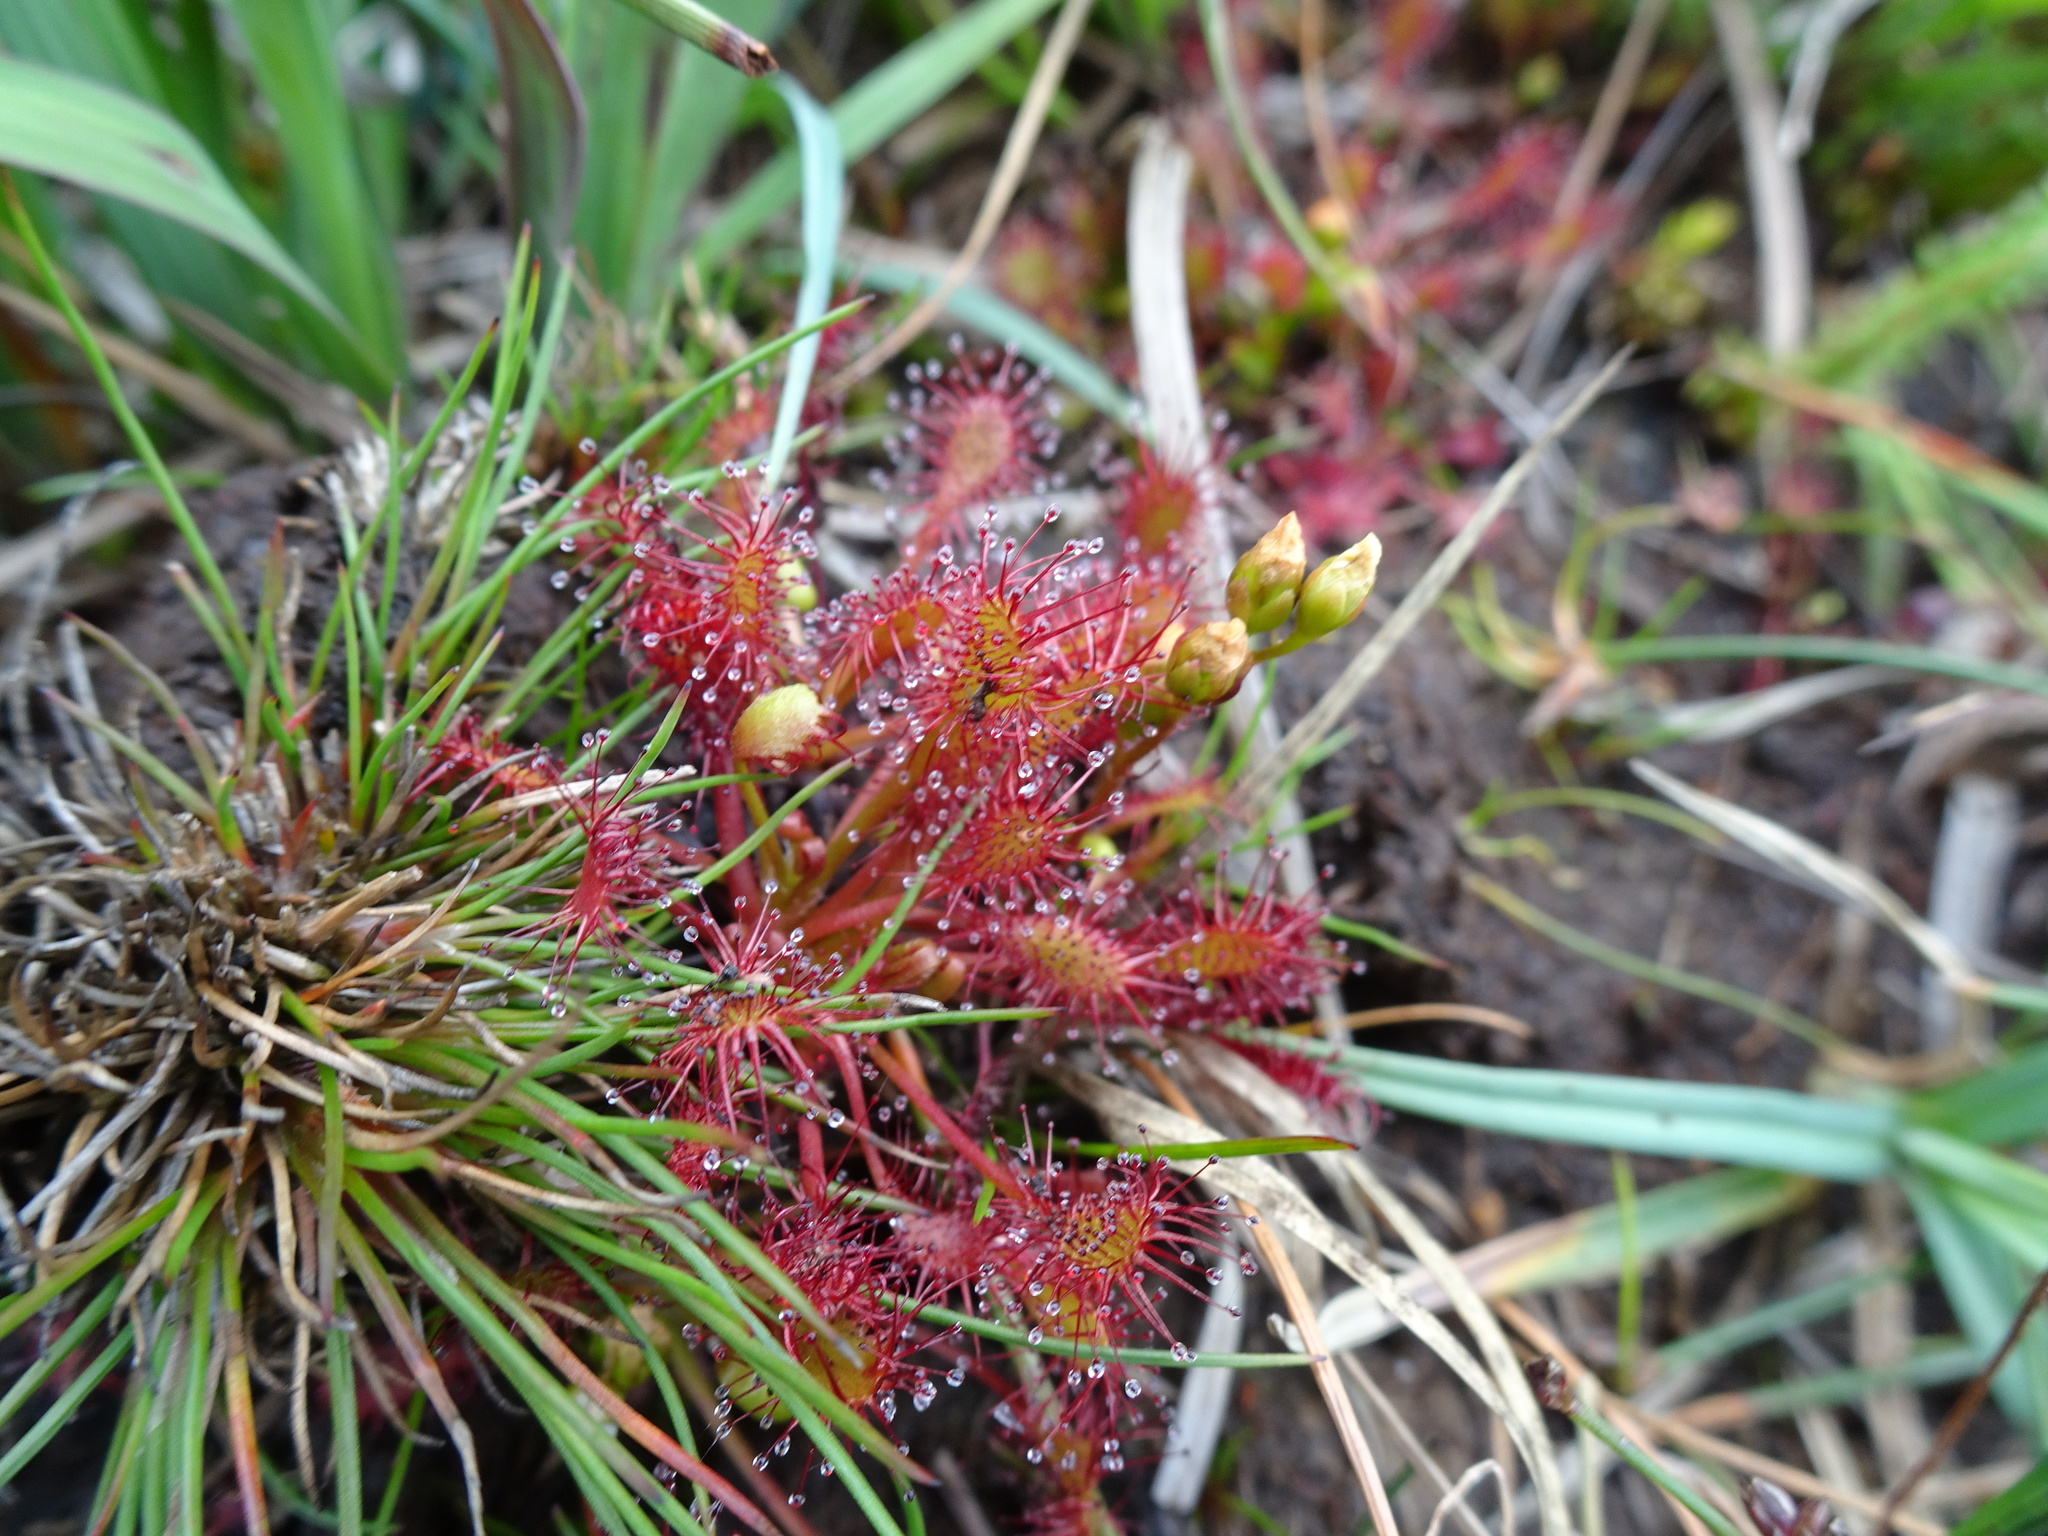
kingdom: Plantae
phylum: Tracheophyta
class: Magnoliopsida
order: Caryophyllales
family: Droseraceae
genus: Drosera
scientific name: Drosera intermedia
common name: Oblong-leaved sundew
